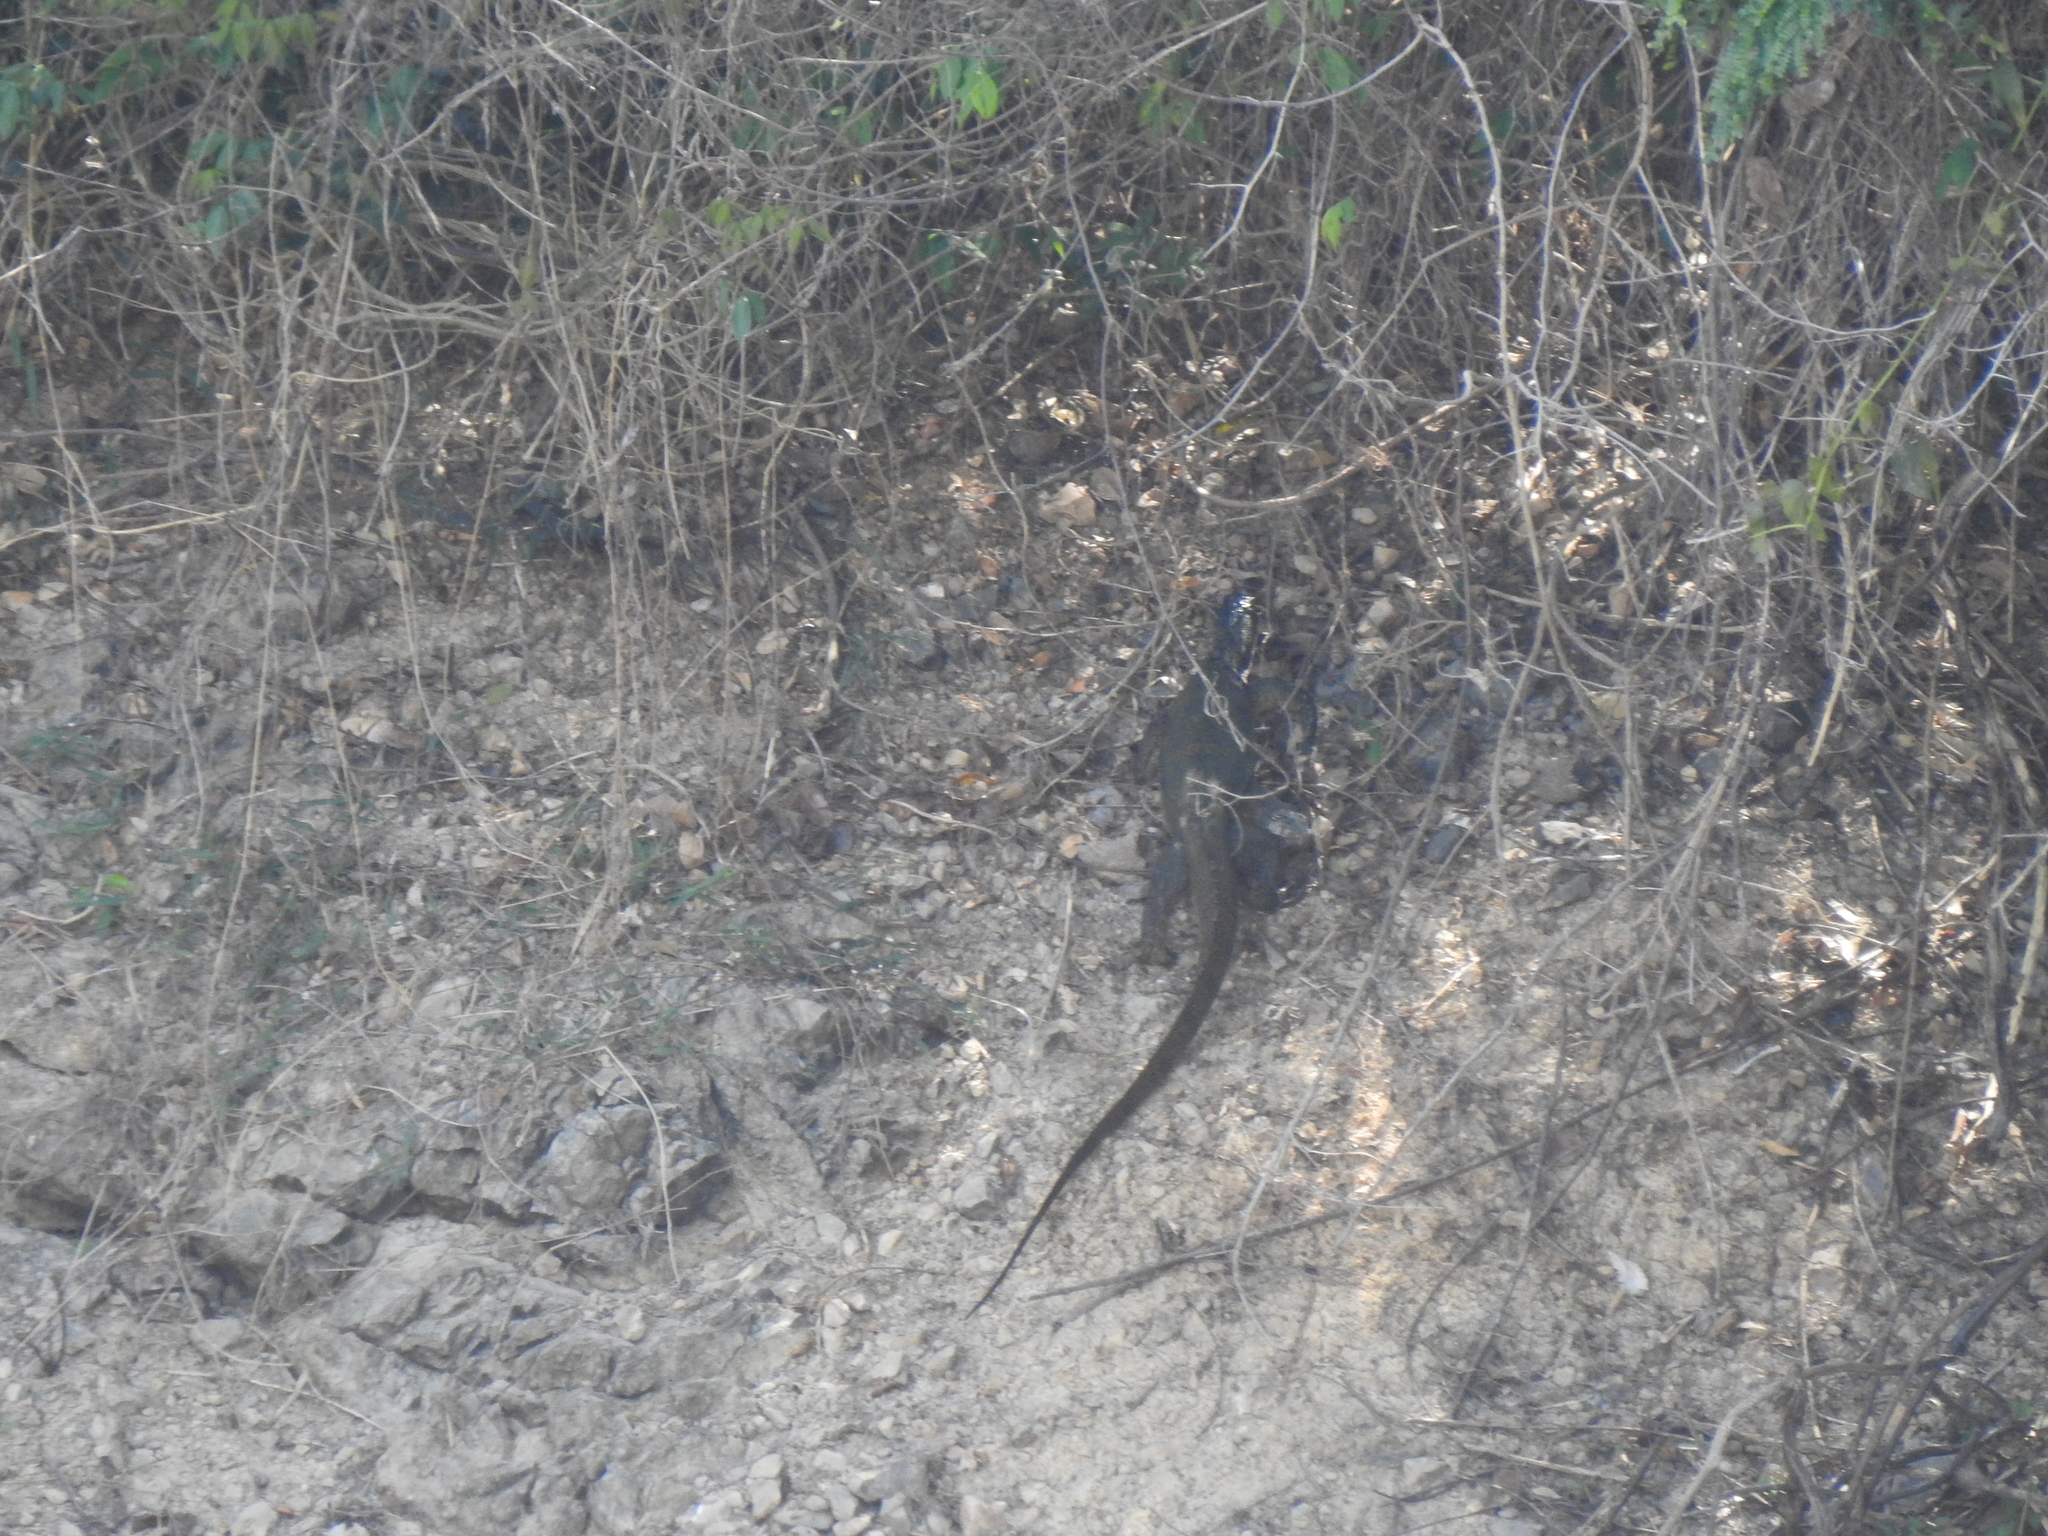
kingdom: Animalia
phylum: Chordata
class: Squamata
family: Varanidae
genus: Varanus
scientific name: Varanus salvator
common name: Common water monitor
